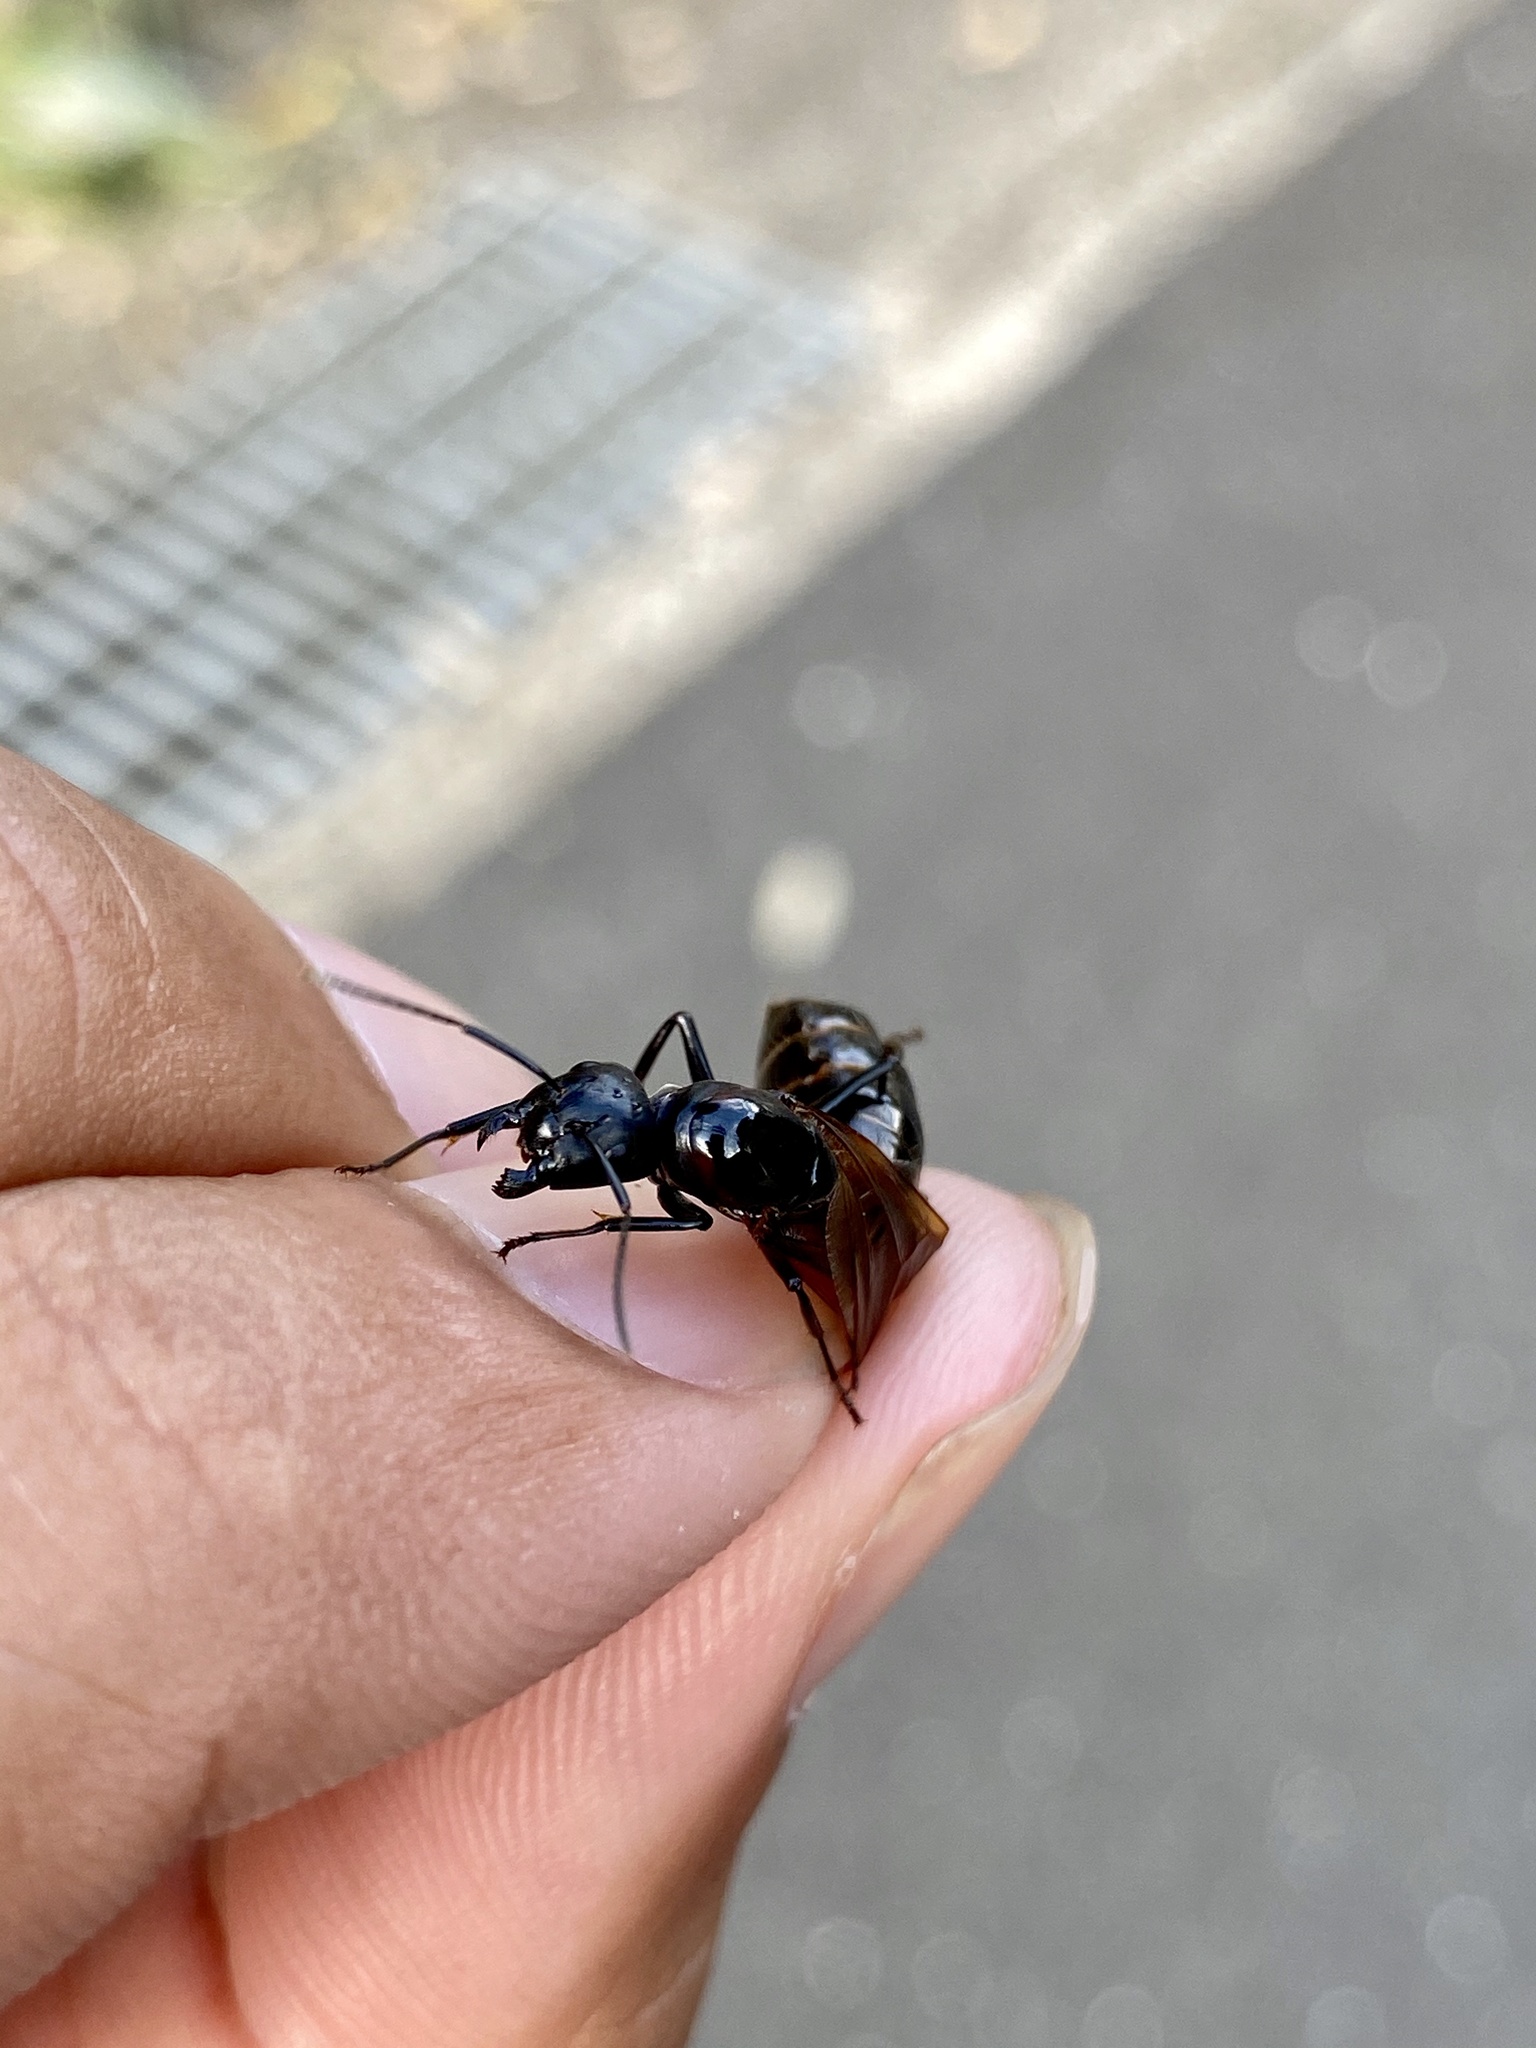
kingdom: Animalia
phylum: Arthropoda
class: Insecta
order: Hymenoptera
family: Formicidae
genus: Camponotus
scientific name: Camponotus obscuripes
